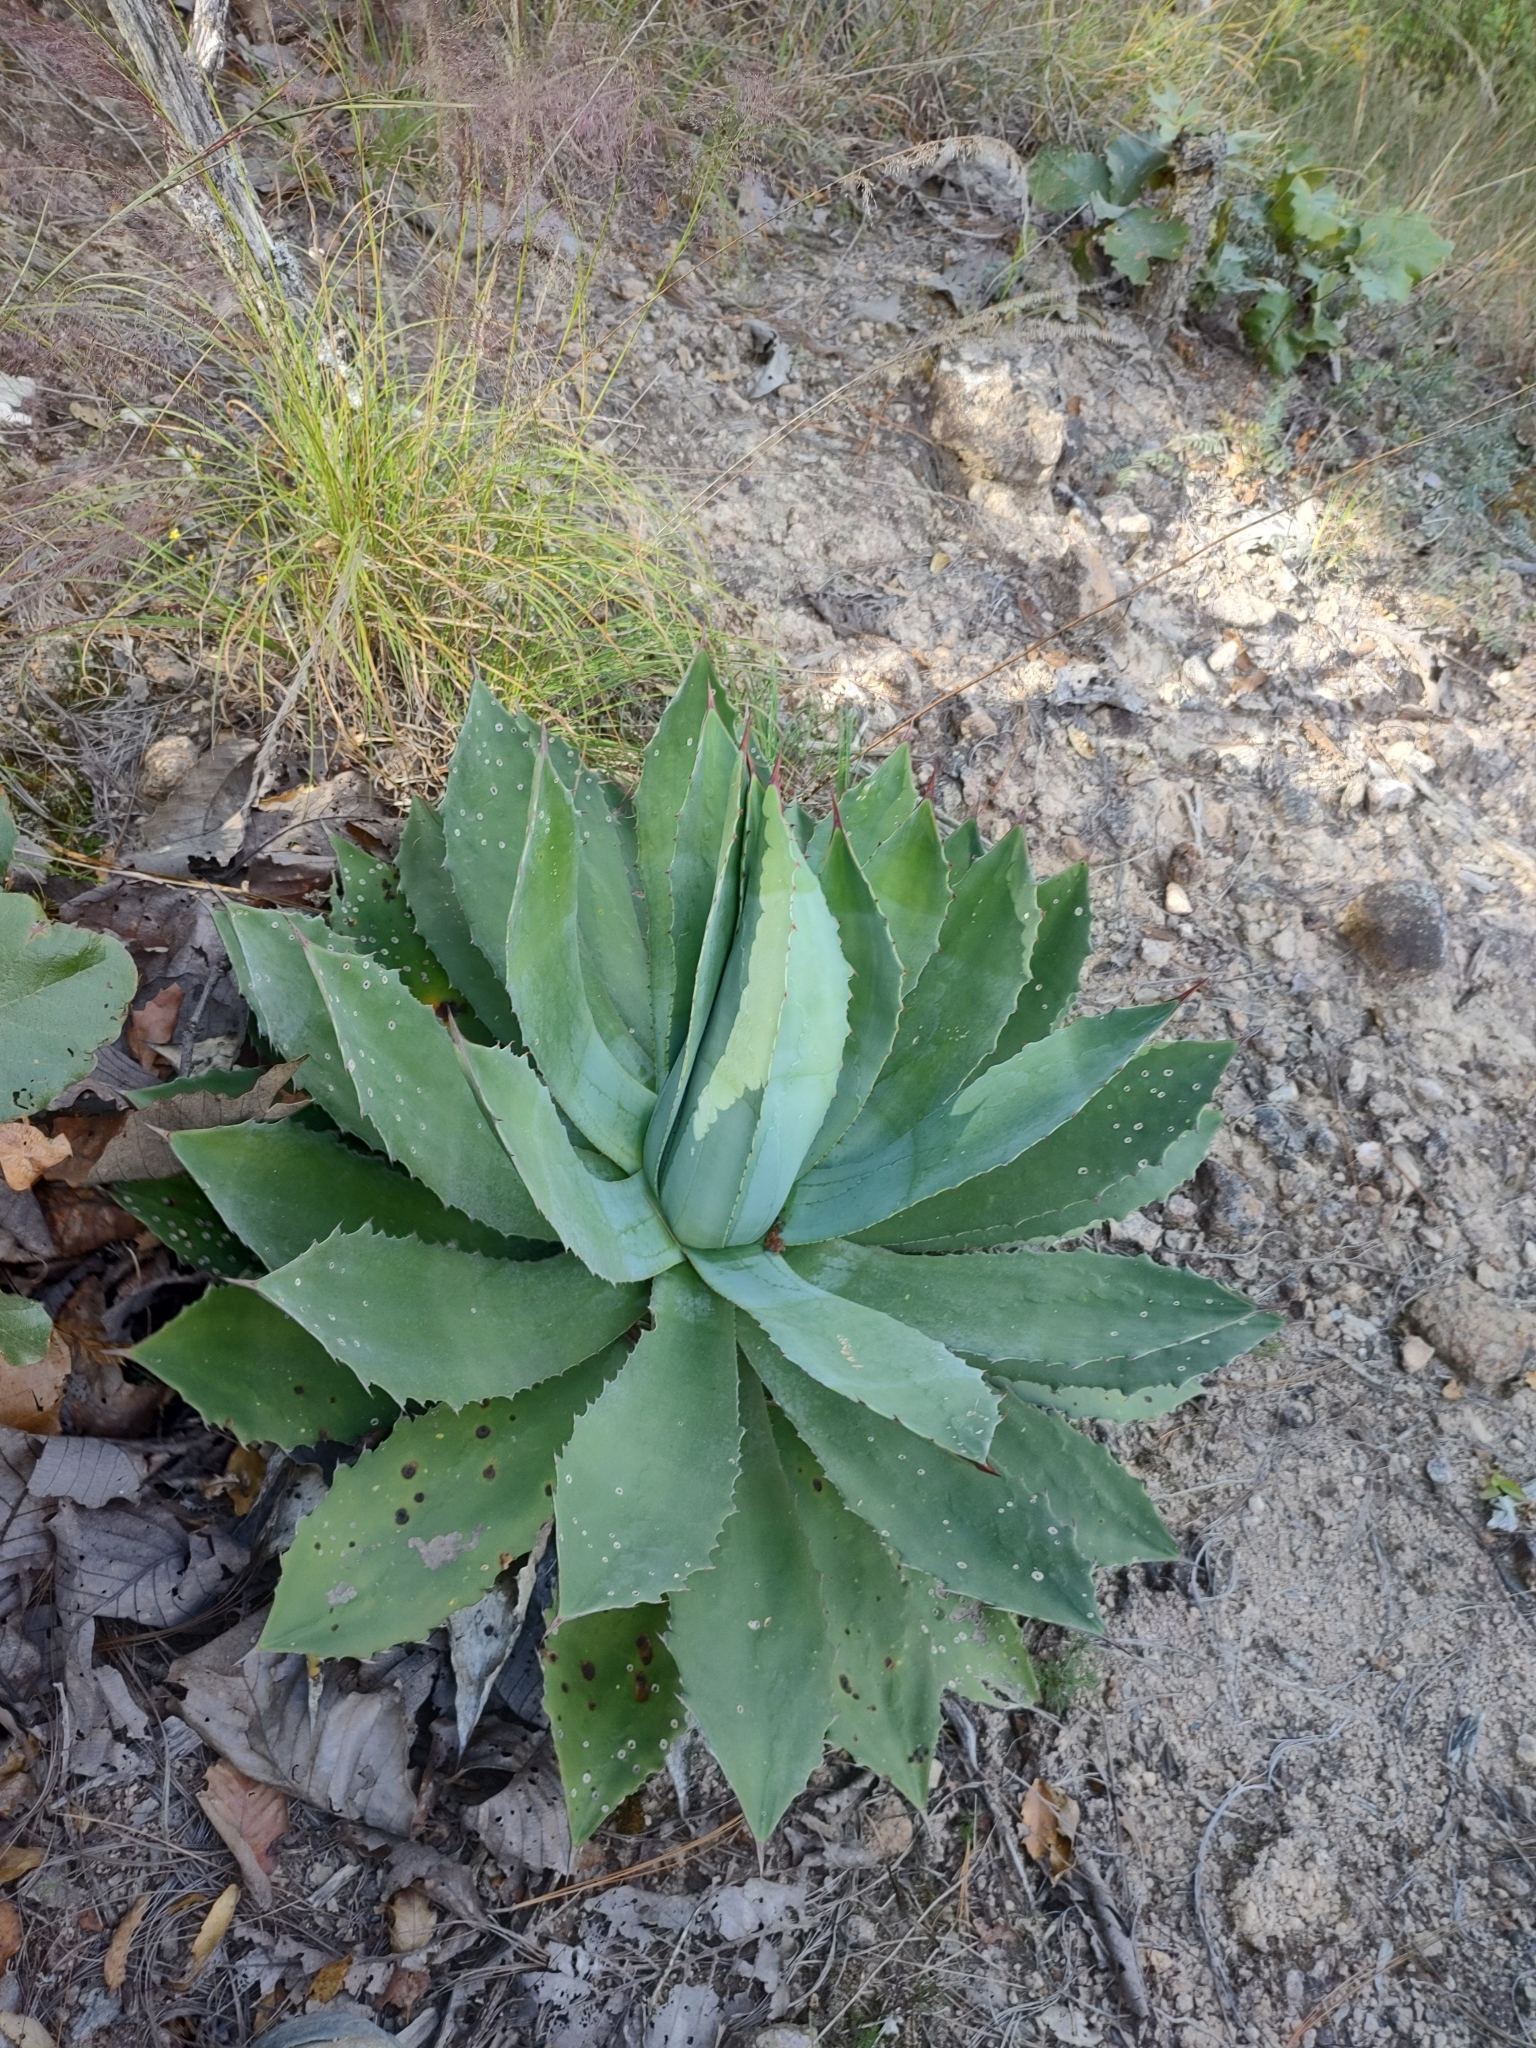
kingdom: Plantae
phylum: Tracheophyta
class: Liliopsida
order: Asparagales
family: Asparagaceae
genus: Agave
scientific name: Agave maximiliana
